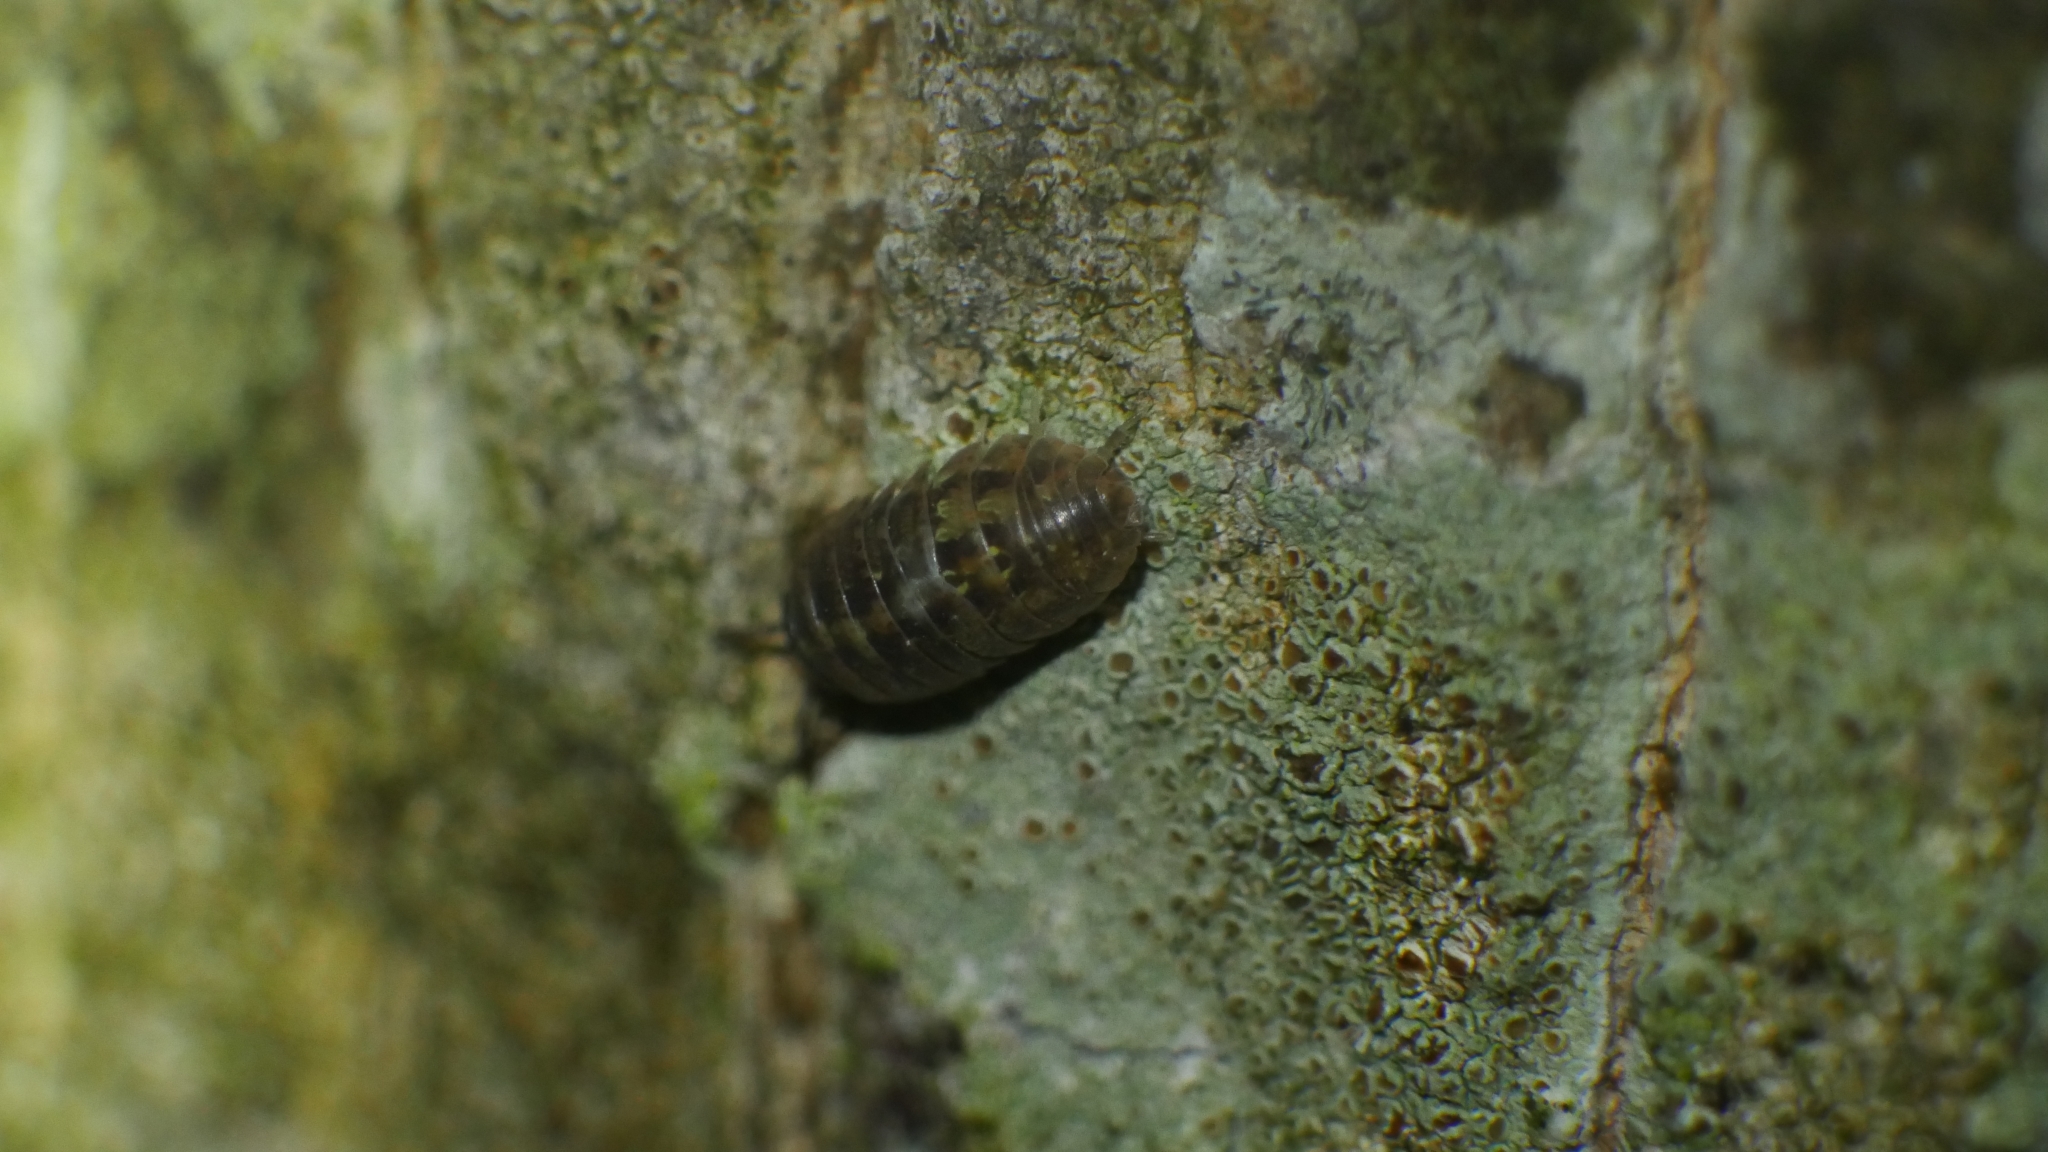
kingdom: Animalia
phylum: Arthropoda
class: Malacostraca
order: Isopoda
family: Armadillidiidae
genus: Armadillidium
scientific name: Armadillidium vulgare
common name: Common pill woodlouse
